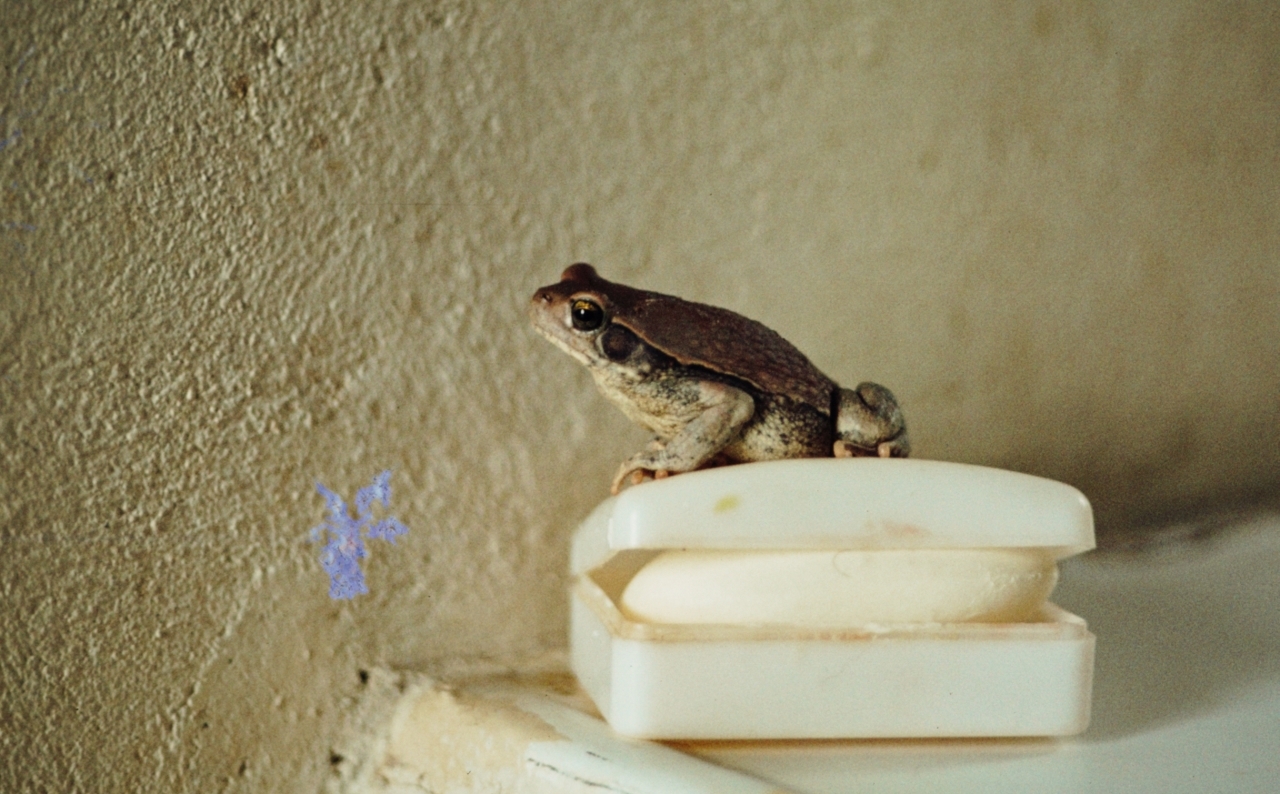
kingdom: Animalia
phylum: Chordata
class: Amphibia
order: Anura
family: Bufonidae
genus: Schismaderma
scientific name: Schismaderma carens
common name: African split-skin toad
